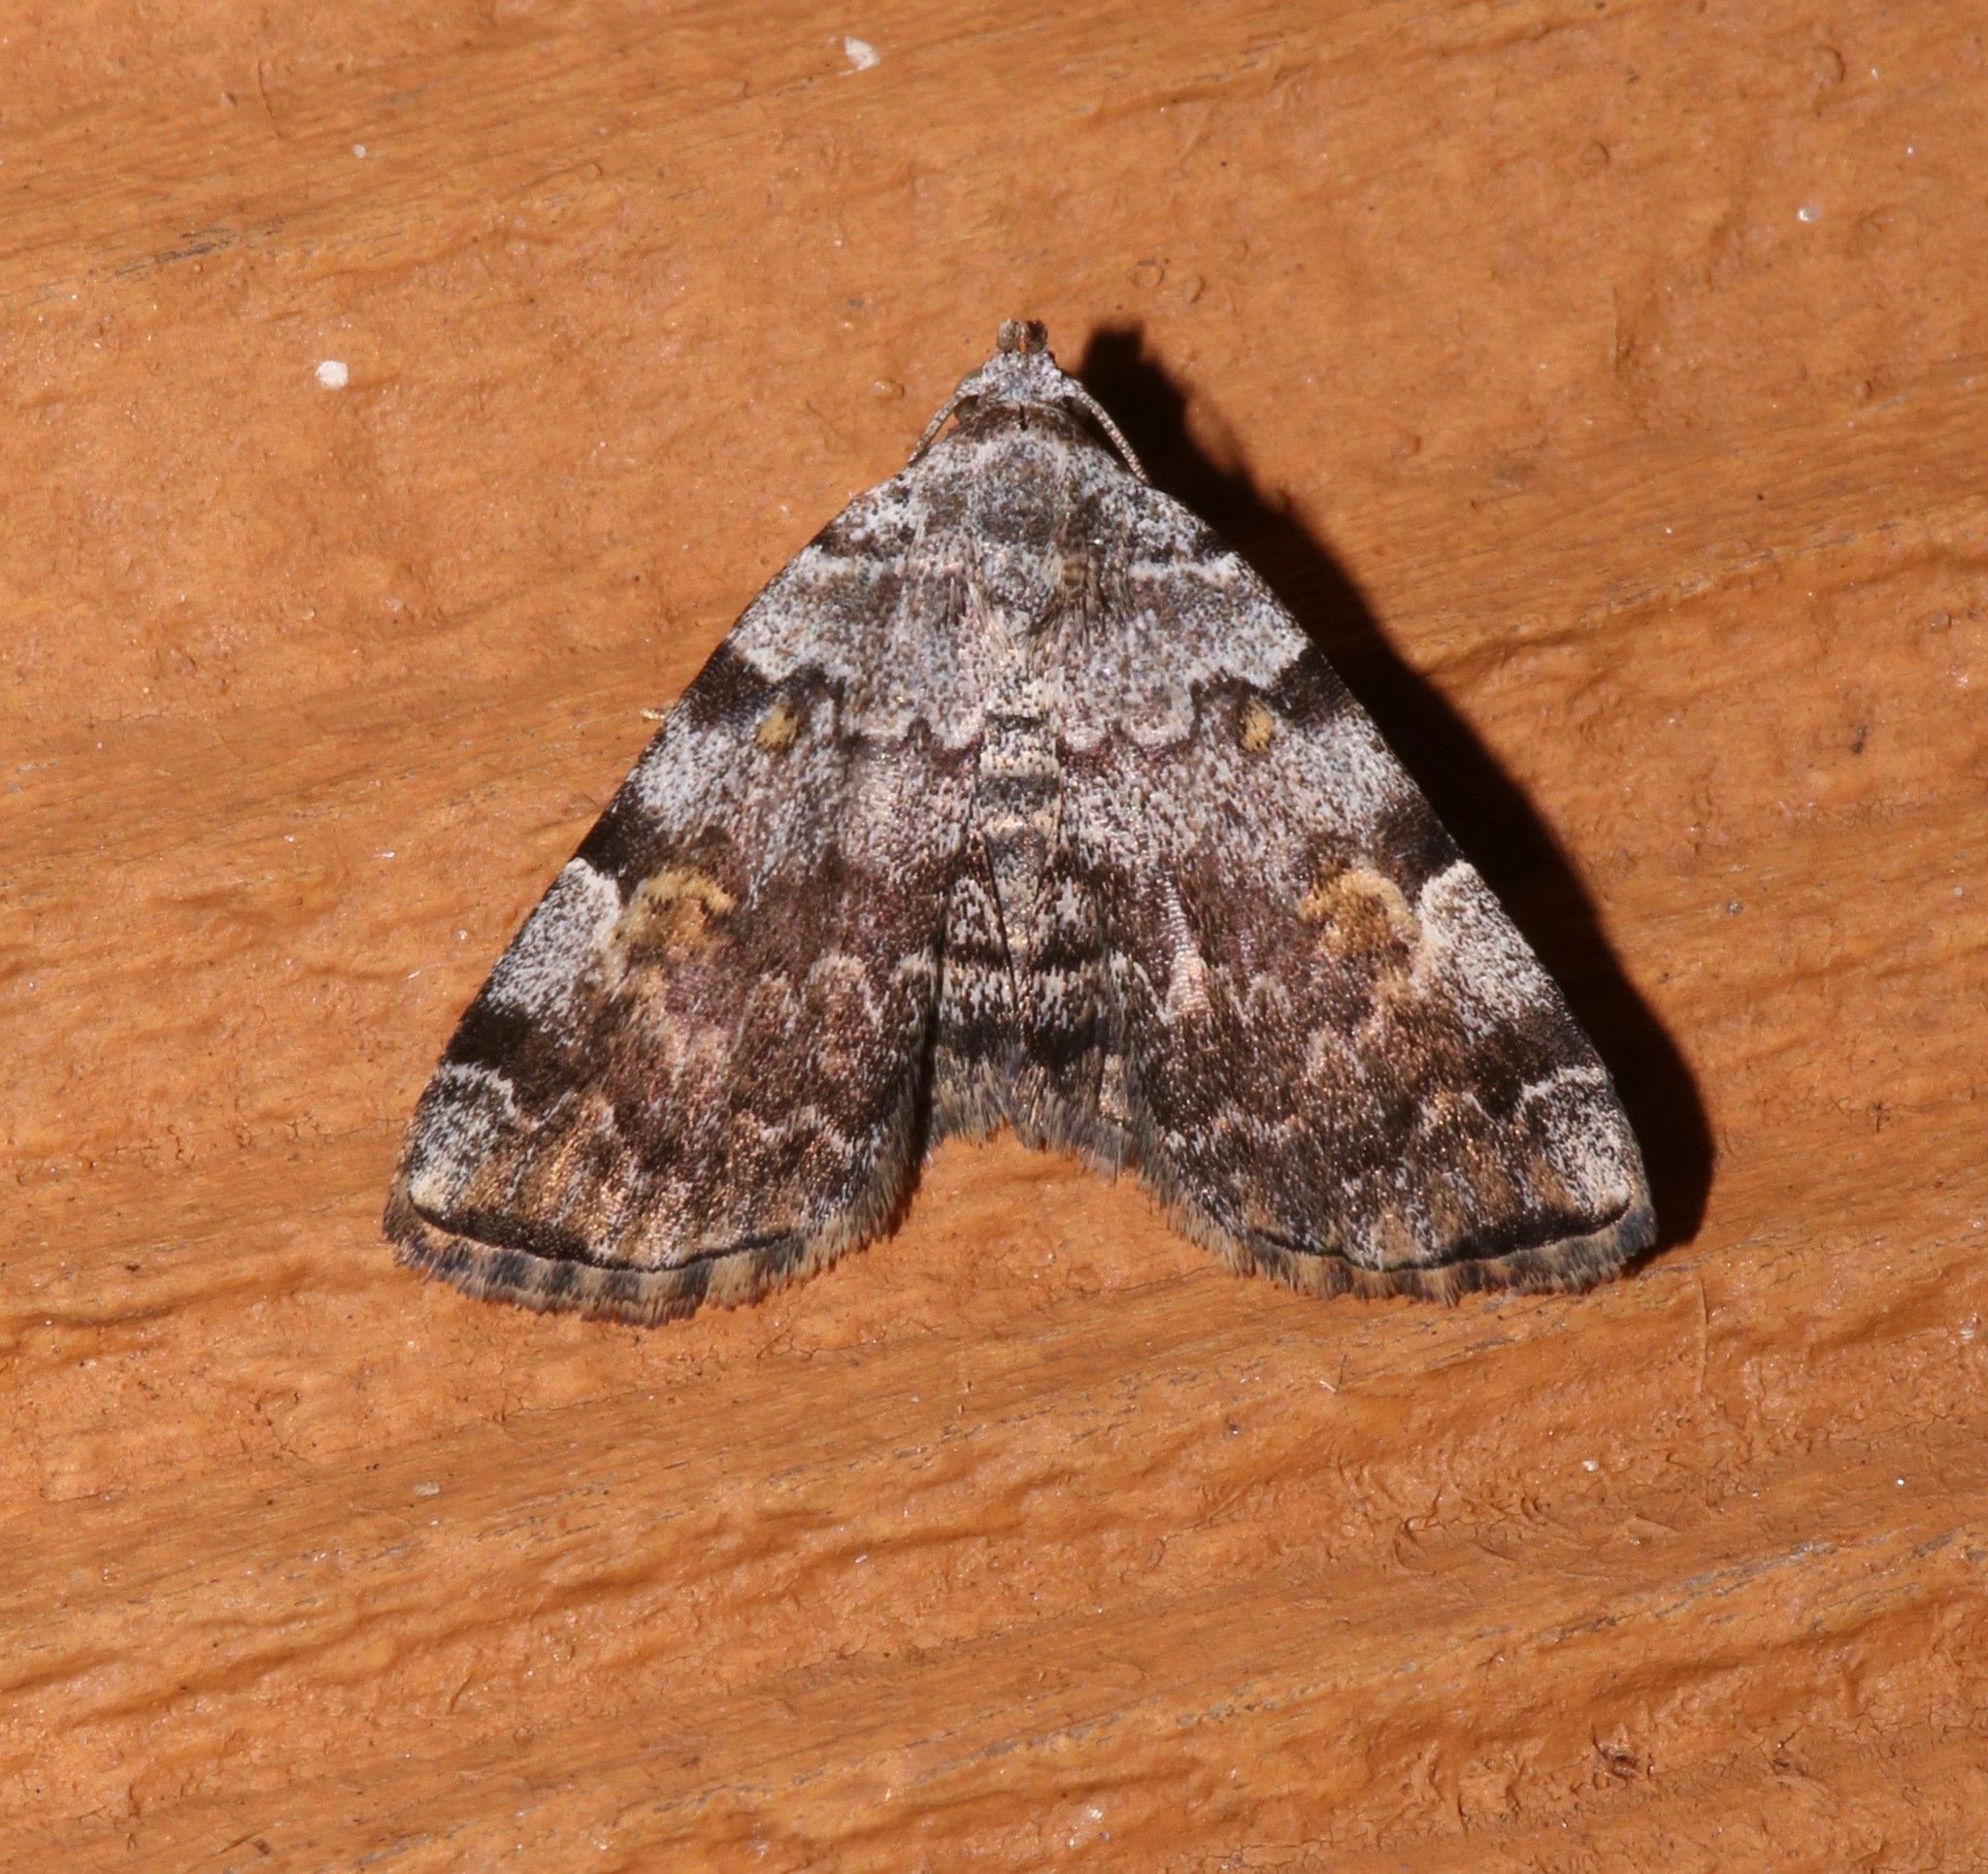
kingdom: Animalia
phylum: Arthropoda
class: Insecta
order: Lepidoptera
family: Erebidae
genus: Idia
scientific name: Idia americalis
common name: American idia moth
